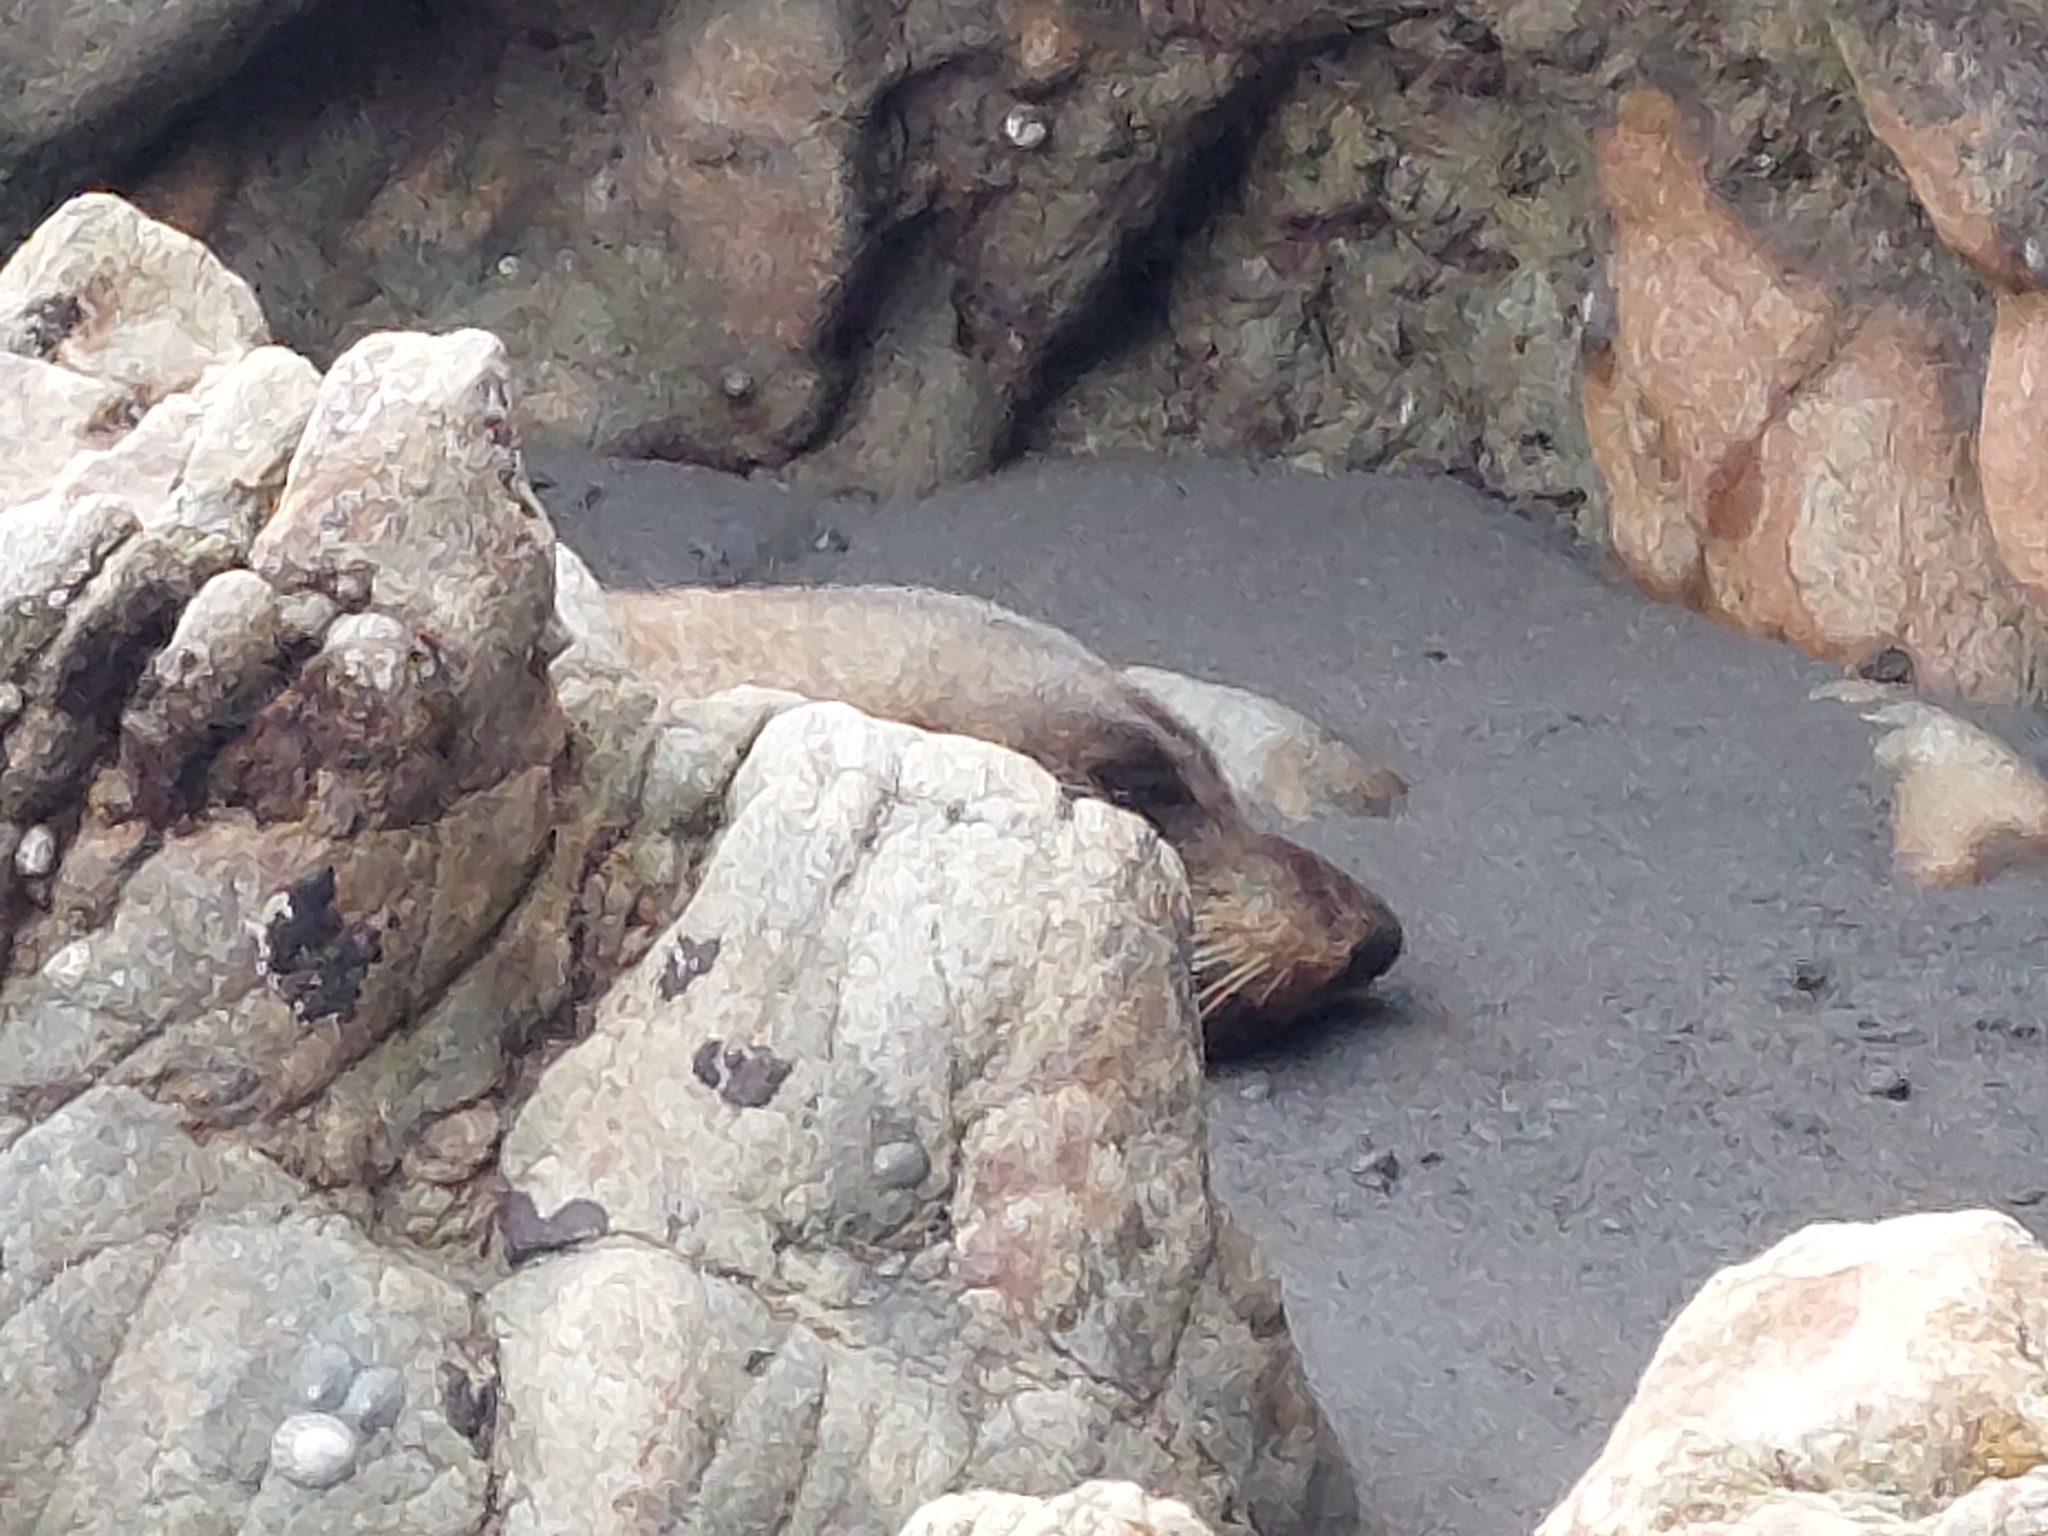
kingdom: Animalia
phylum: Chordata
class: Mammalia
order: Carnivora
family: Otariidae
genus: Arctocephalus
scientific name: Arctocephalus forsteri
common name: New zealand fur seal
